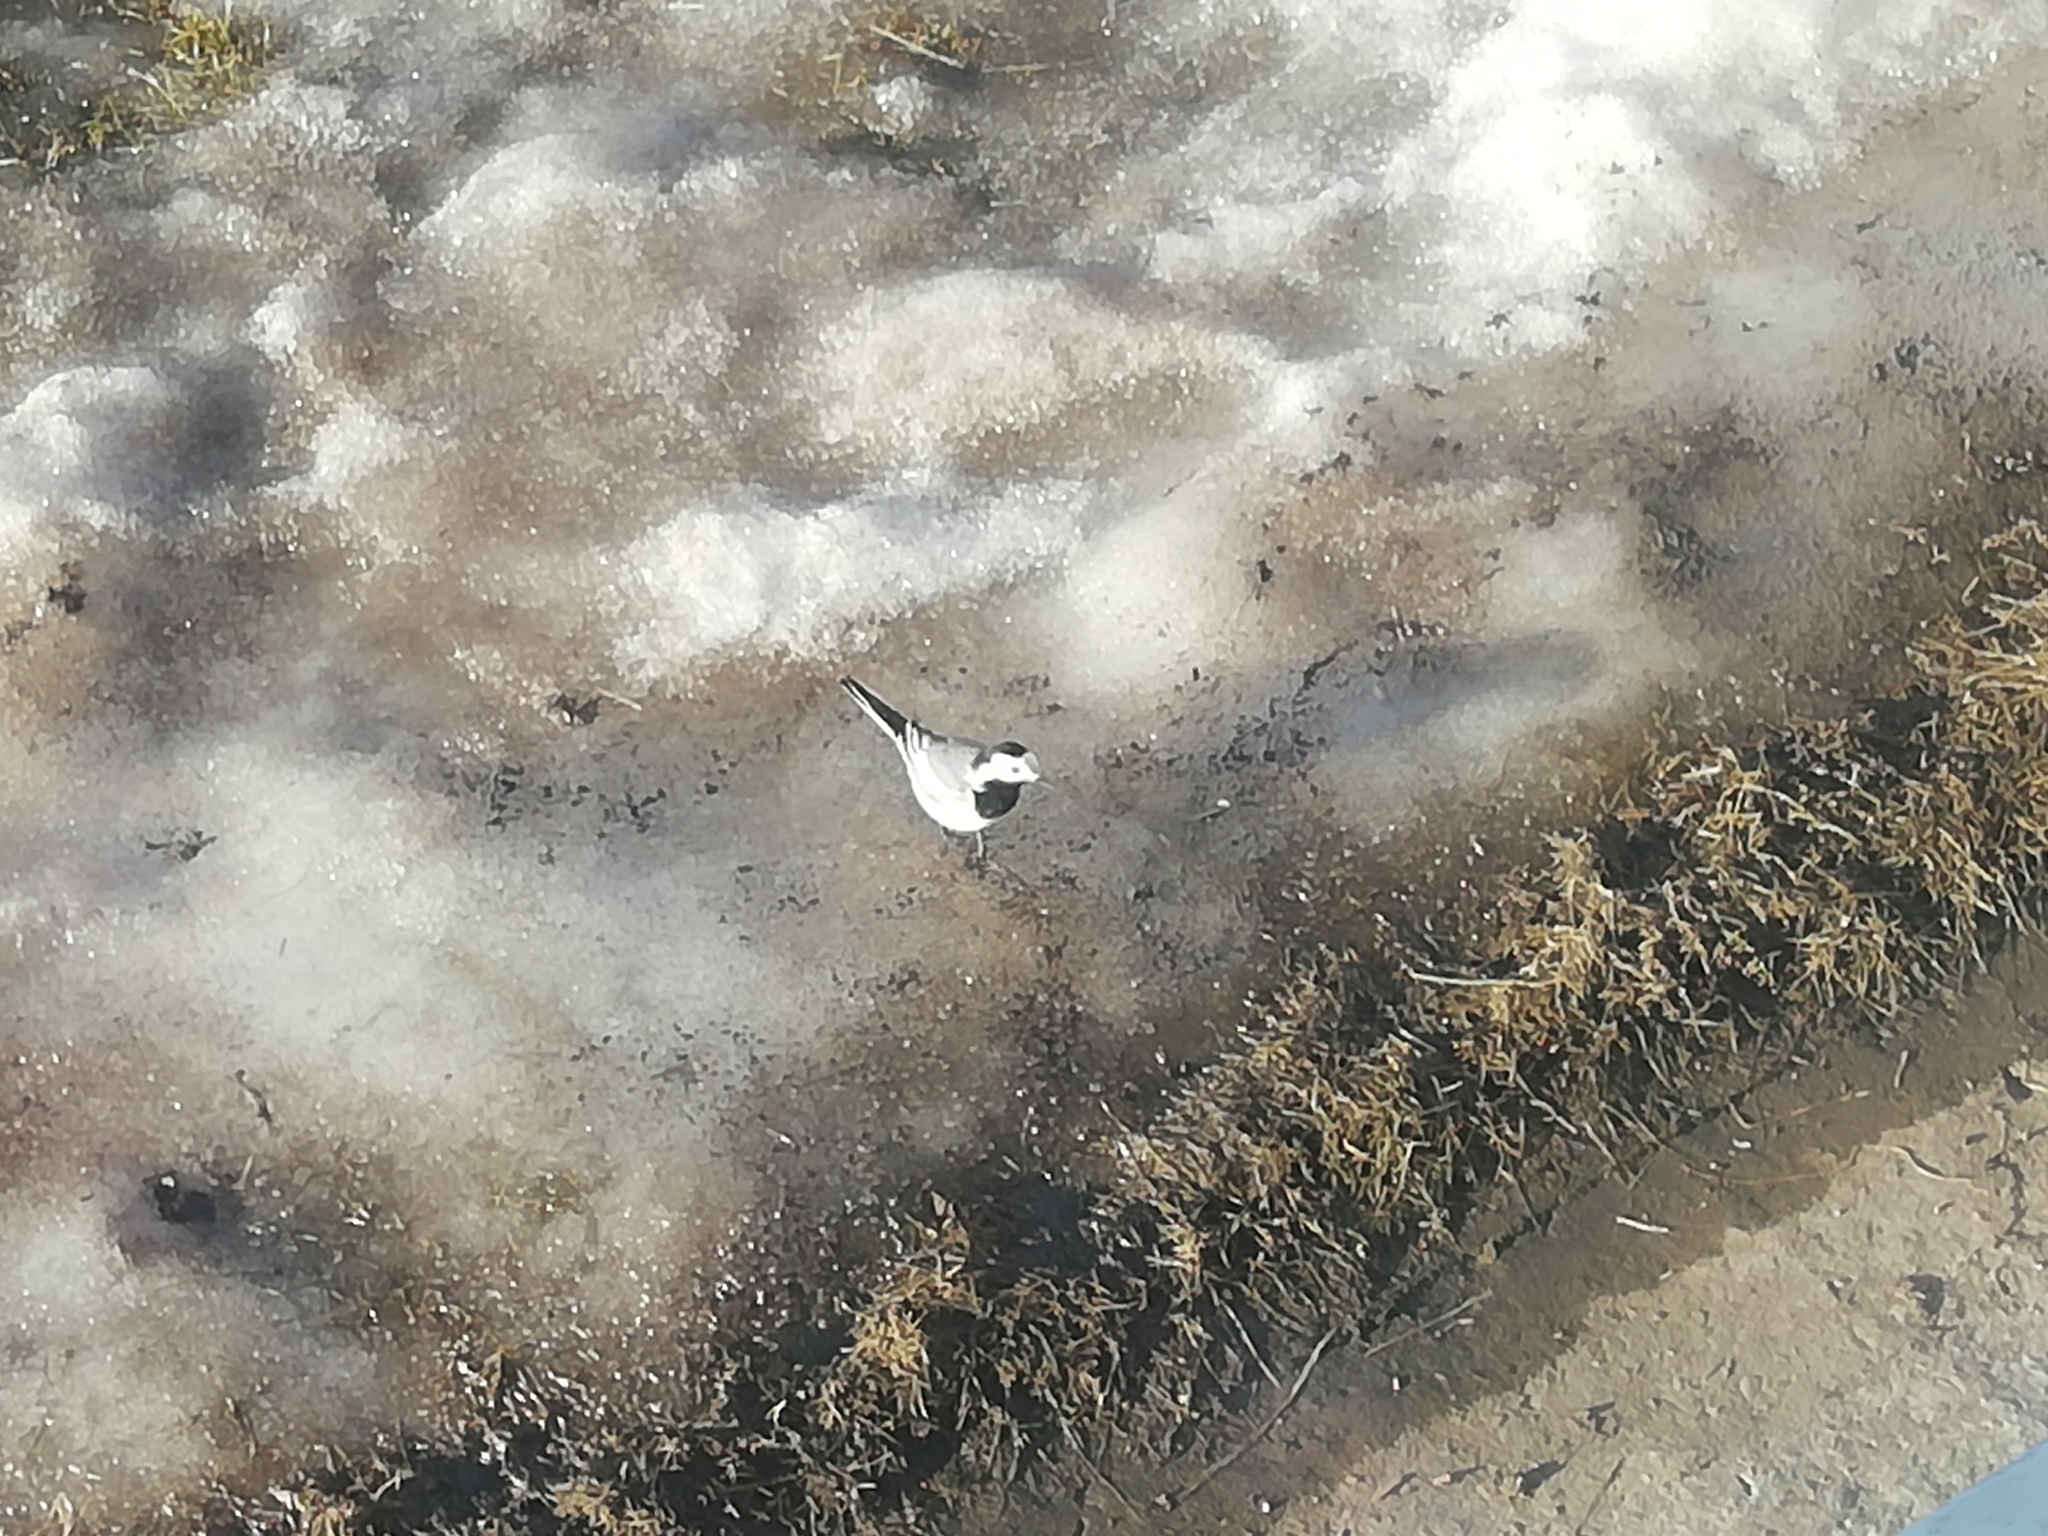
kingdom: Animalia
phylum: Chordata
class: Aves
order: Passeriformes
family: Motacillidae
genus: Motacilla
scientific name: Motacilla alba
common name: White wagtail
